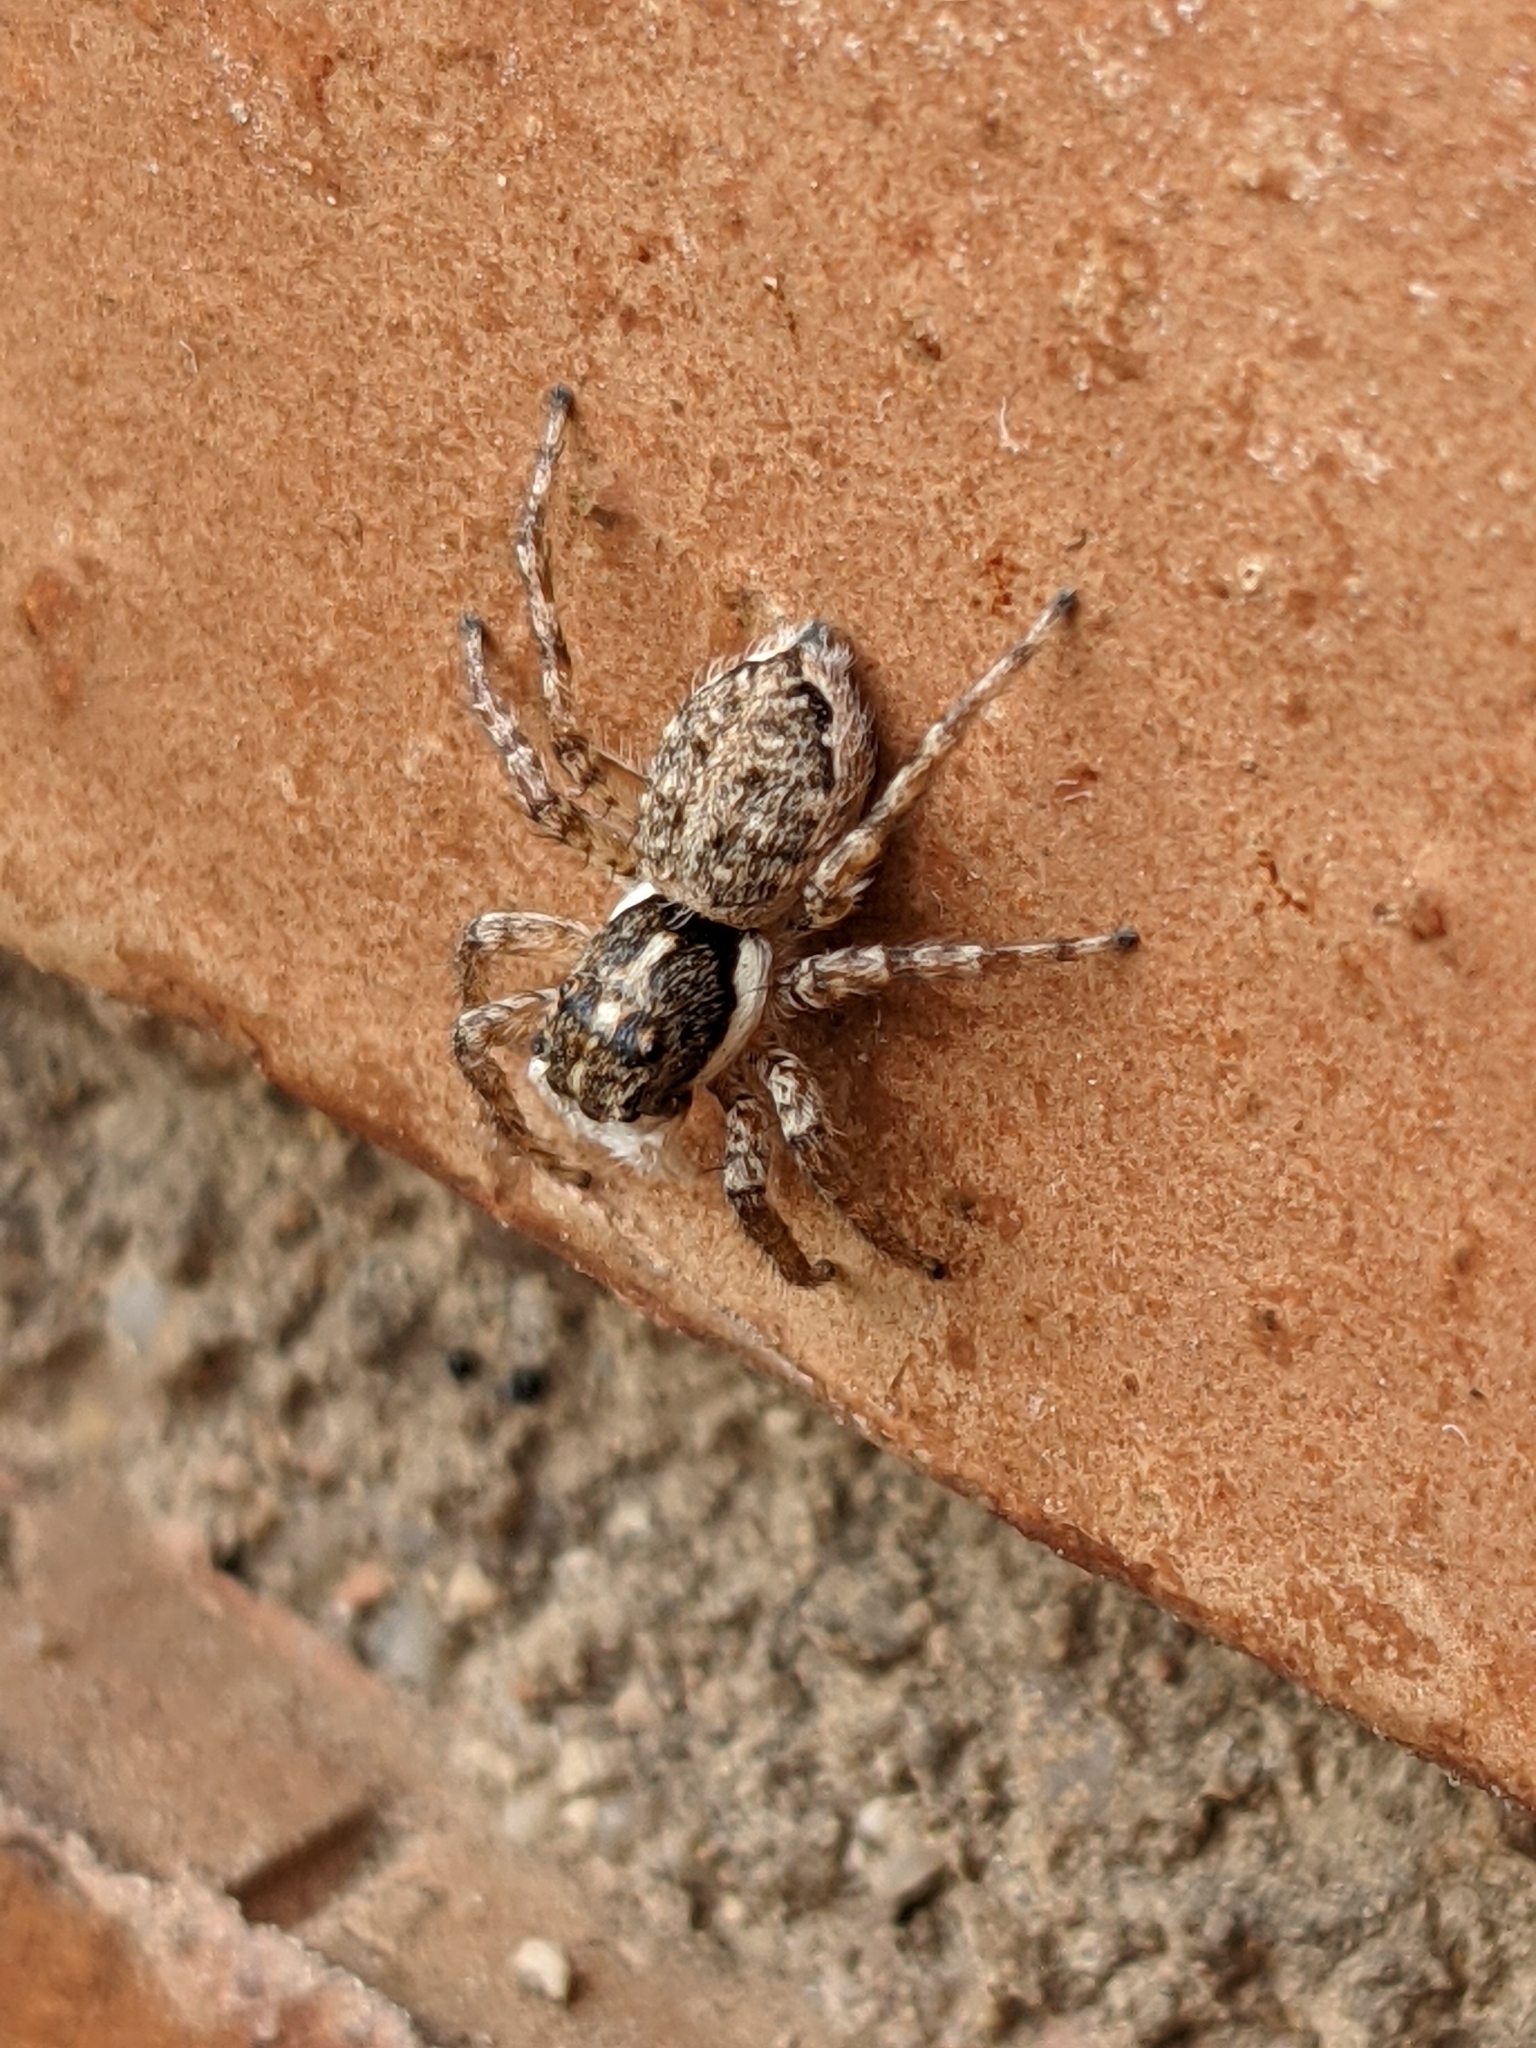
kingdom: Animalia
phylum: Arthropoda
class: Arachnida
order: Araneae
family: Salticidae
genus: Menemerus
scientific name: Menemerus semilimbatus
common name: Jumping spider
